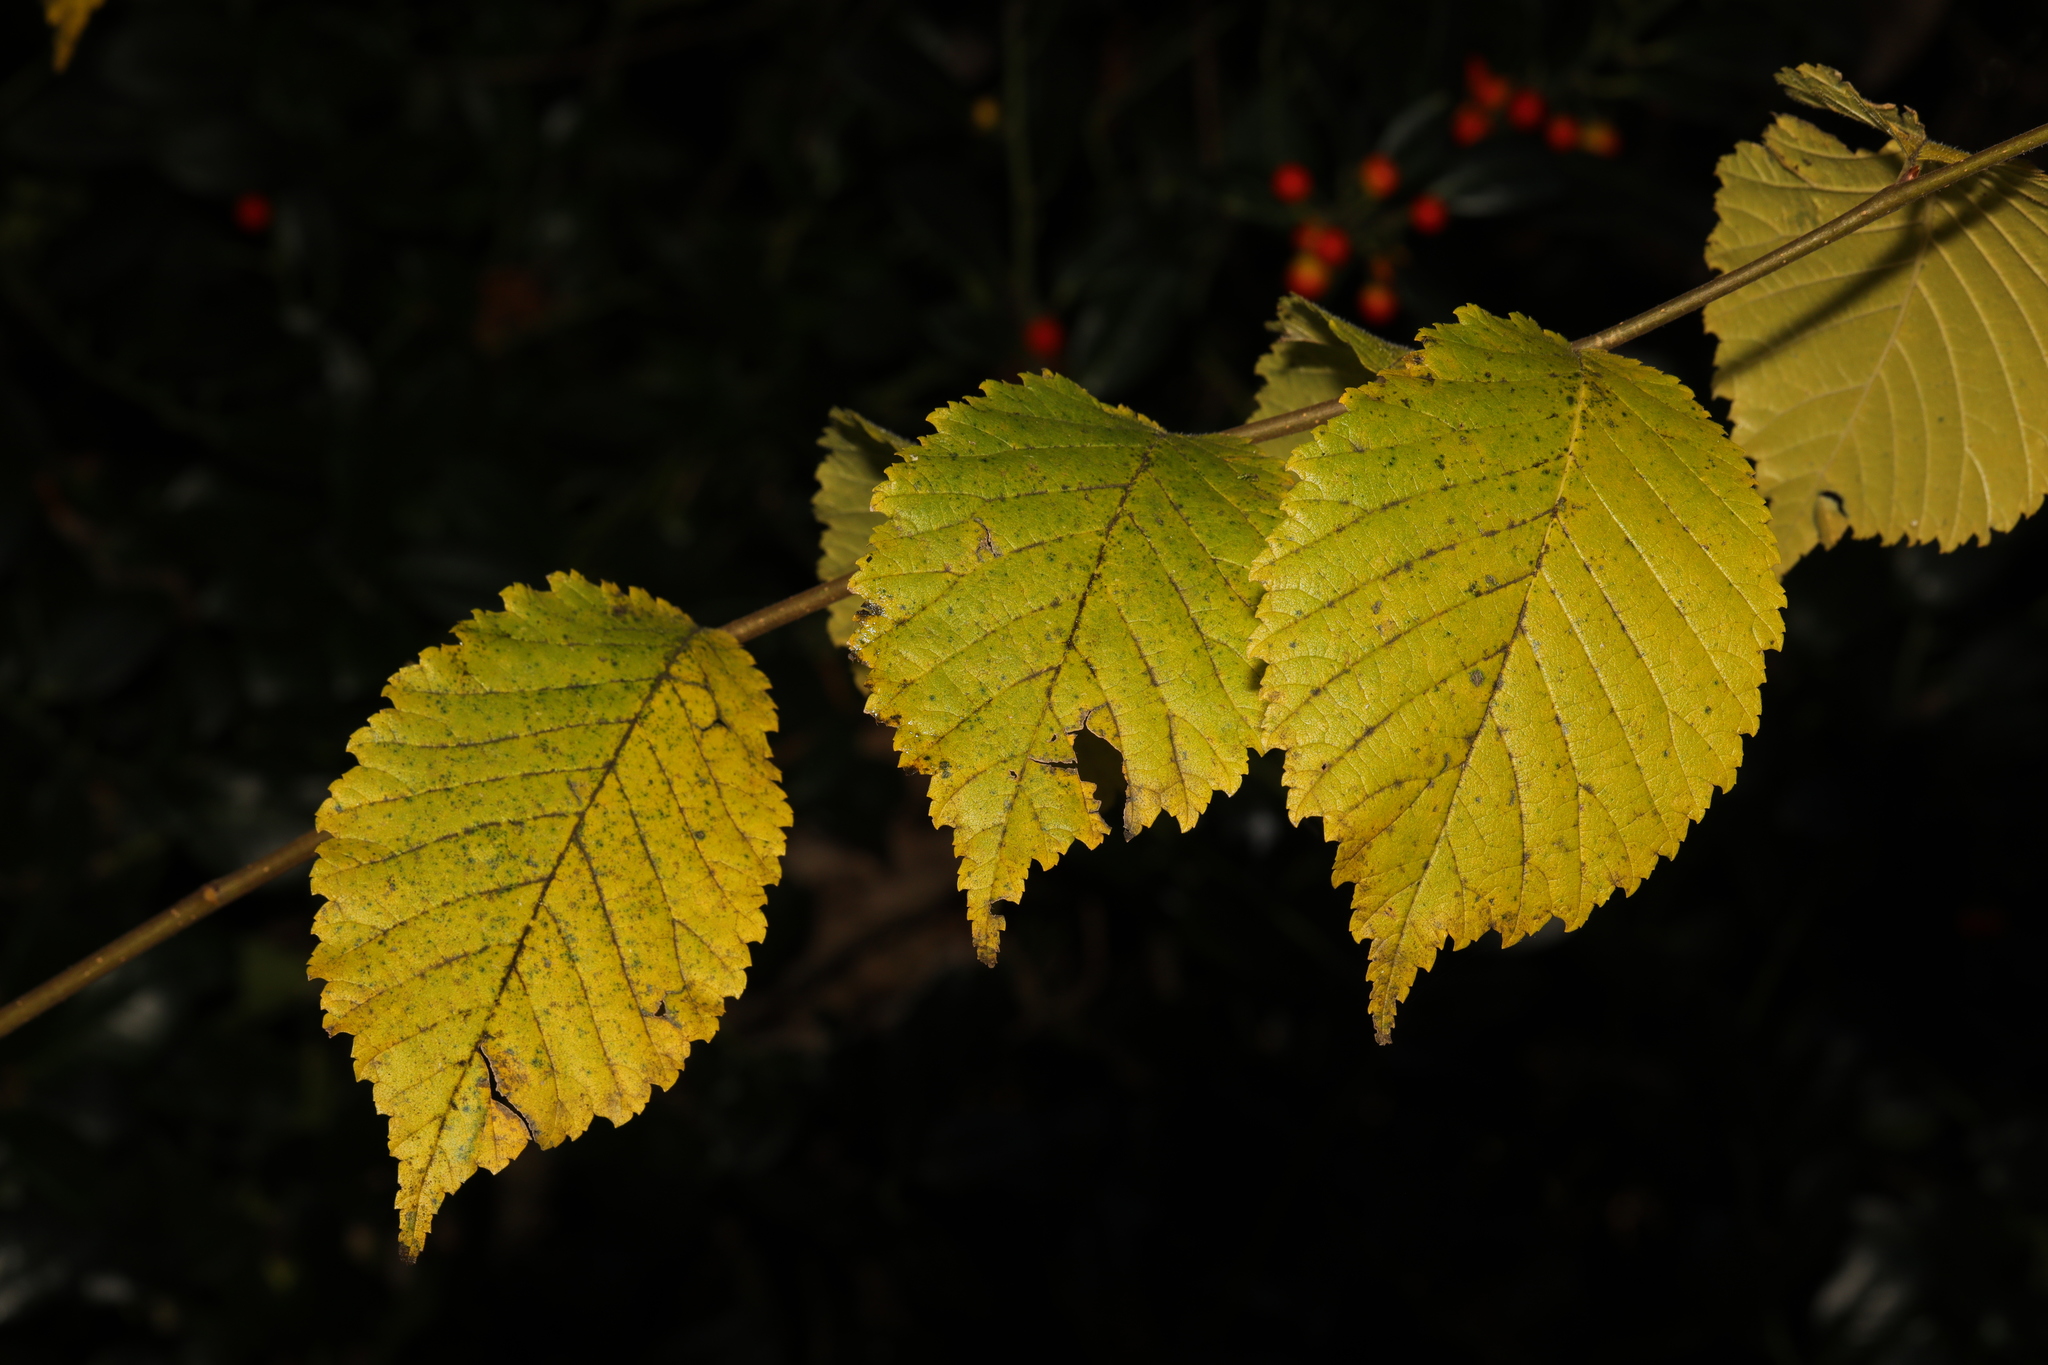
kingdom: Plantae
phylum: Tracheophyta
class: Magnoliopsida
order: Rosales
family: Ulmaceae
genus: Ulmus
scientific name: Ulmus glabra
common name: Wych elm
